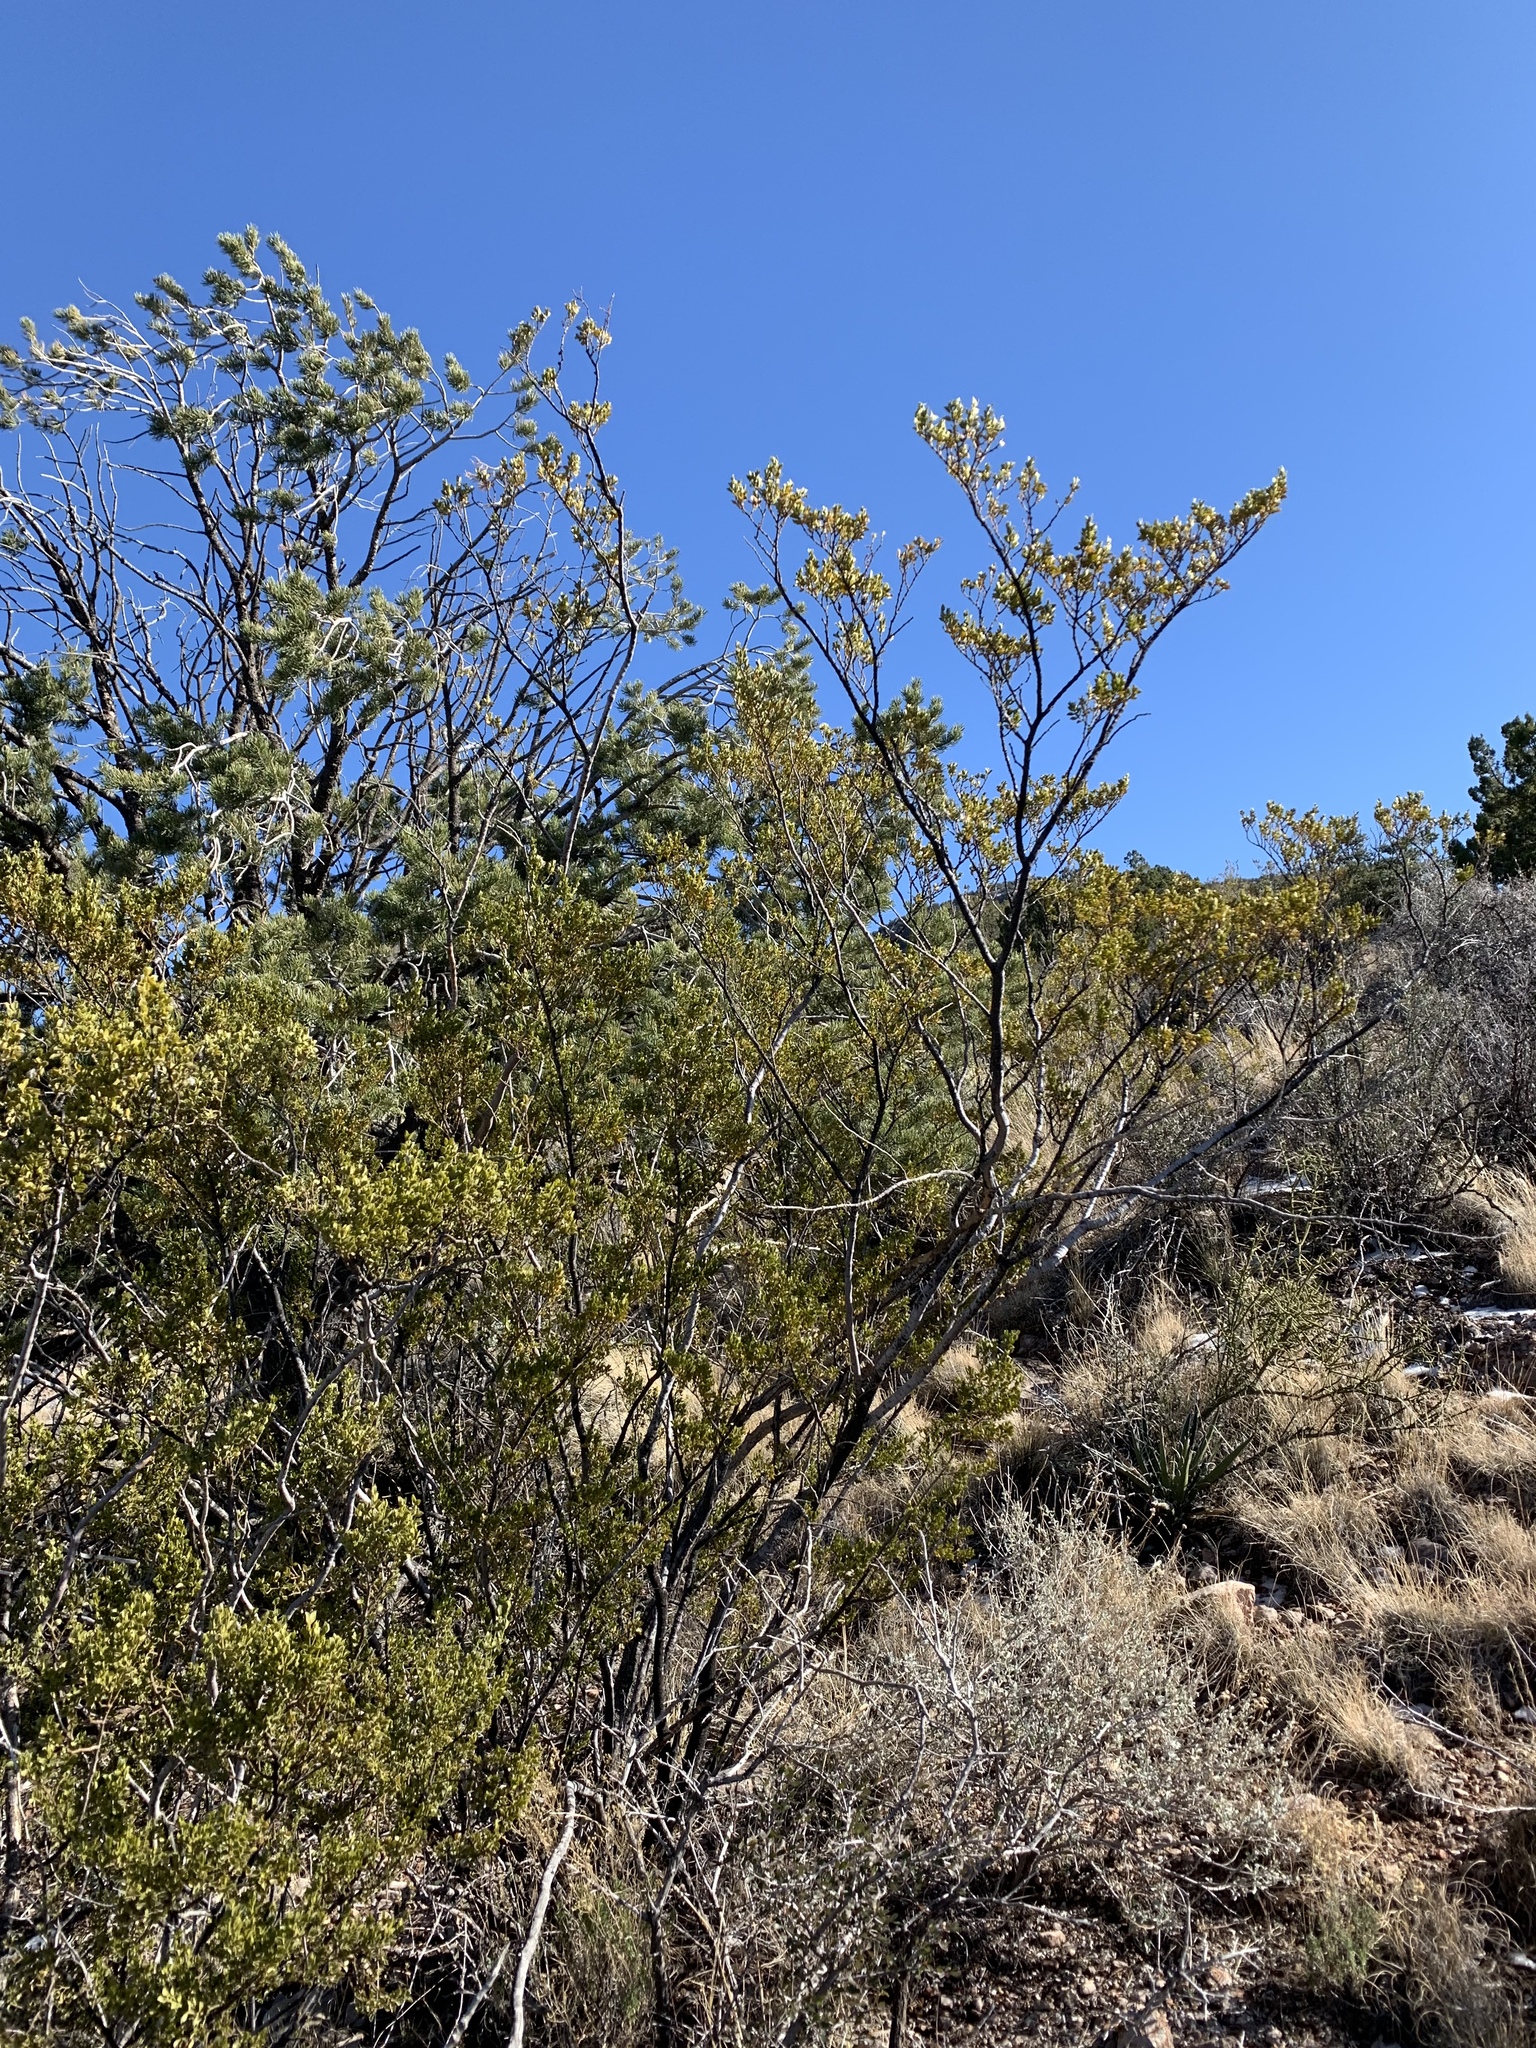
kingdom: Plantae
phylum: Tracheophyta
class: Magnoliopsida
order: Zygophyllales
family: Zygophyllaceae
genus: Larrea
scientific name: Larrea tridentata
